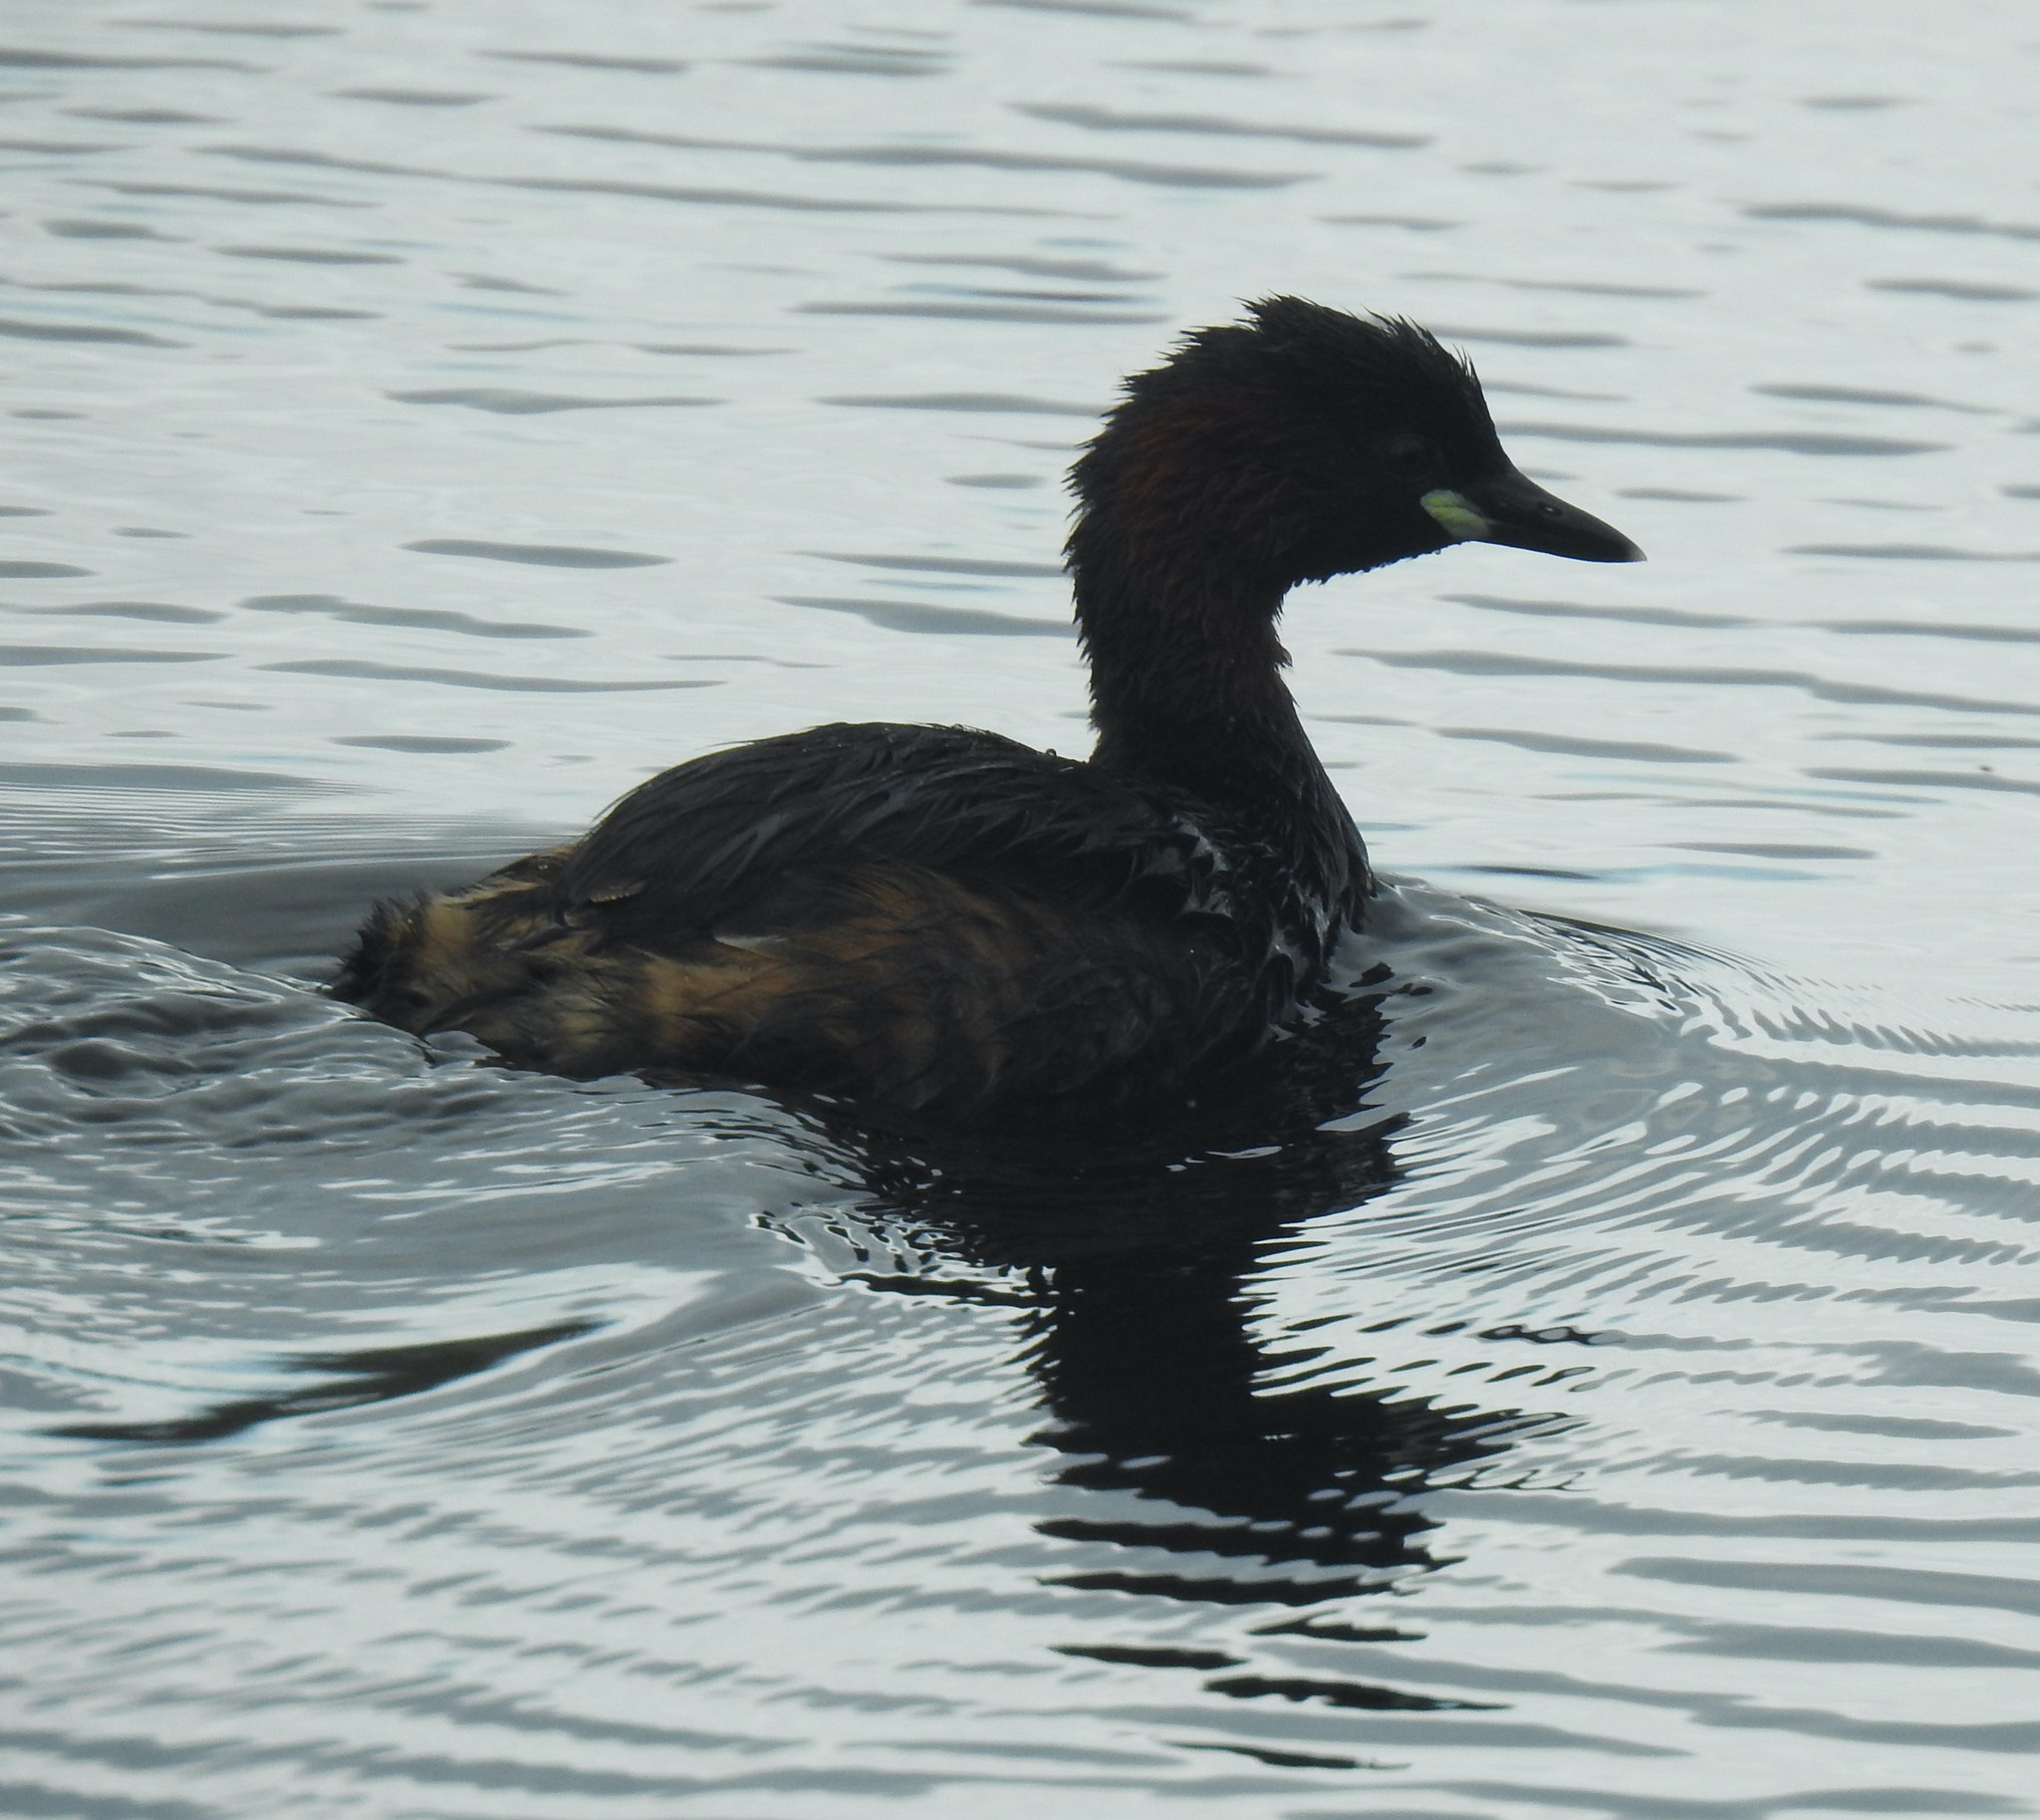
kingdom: Animalia
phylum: Chordata
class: Aves
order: Podicipediformes
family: Podicipedidae
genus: Tachybaptus
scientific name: Tachybaptus ruficollis
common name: Little grebe
